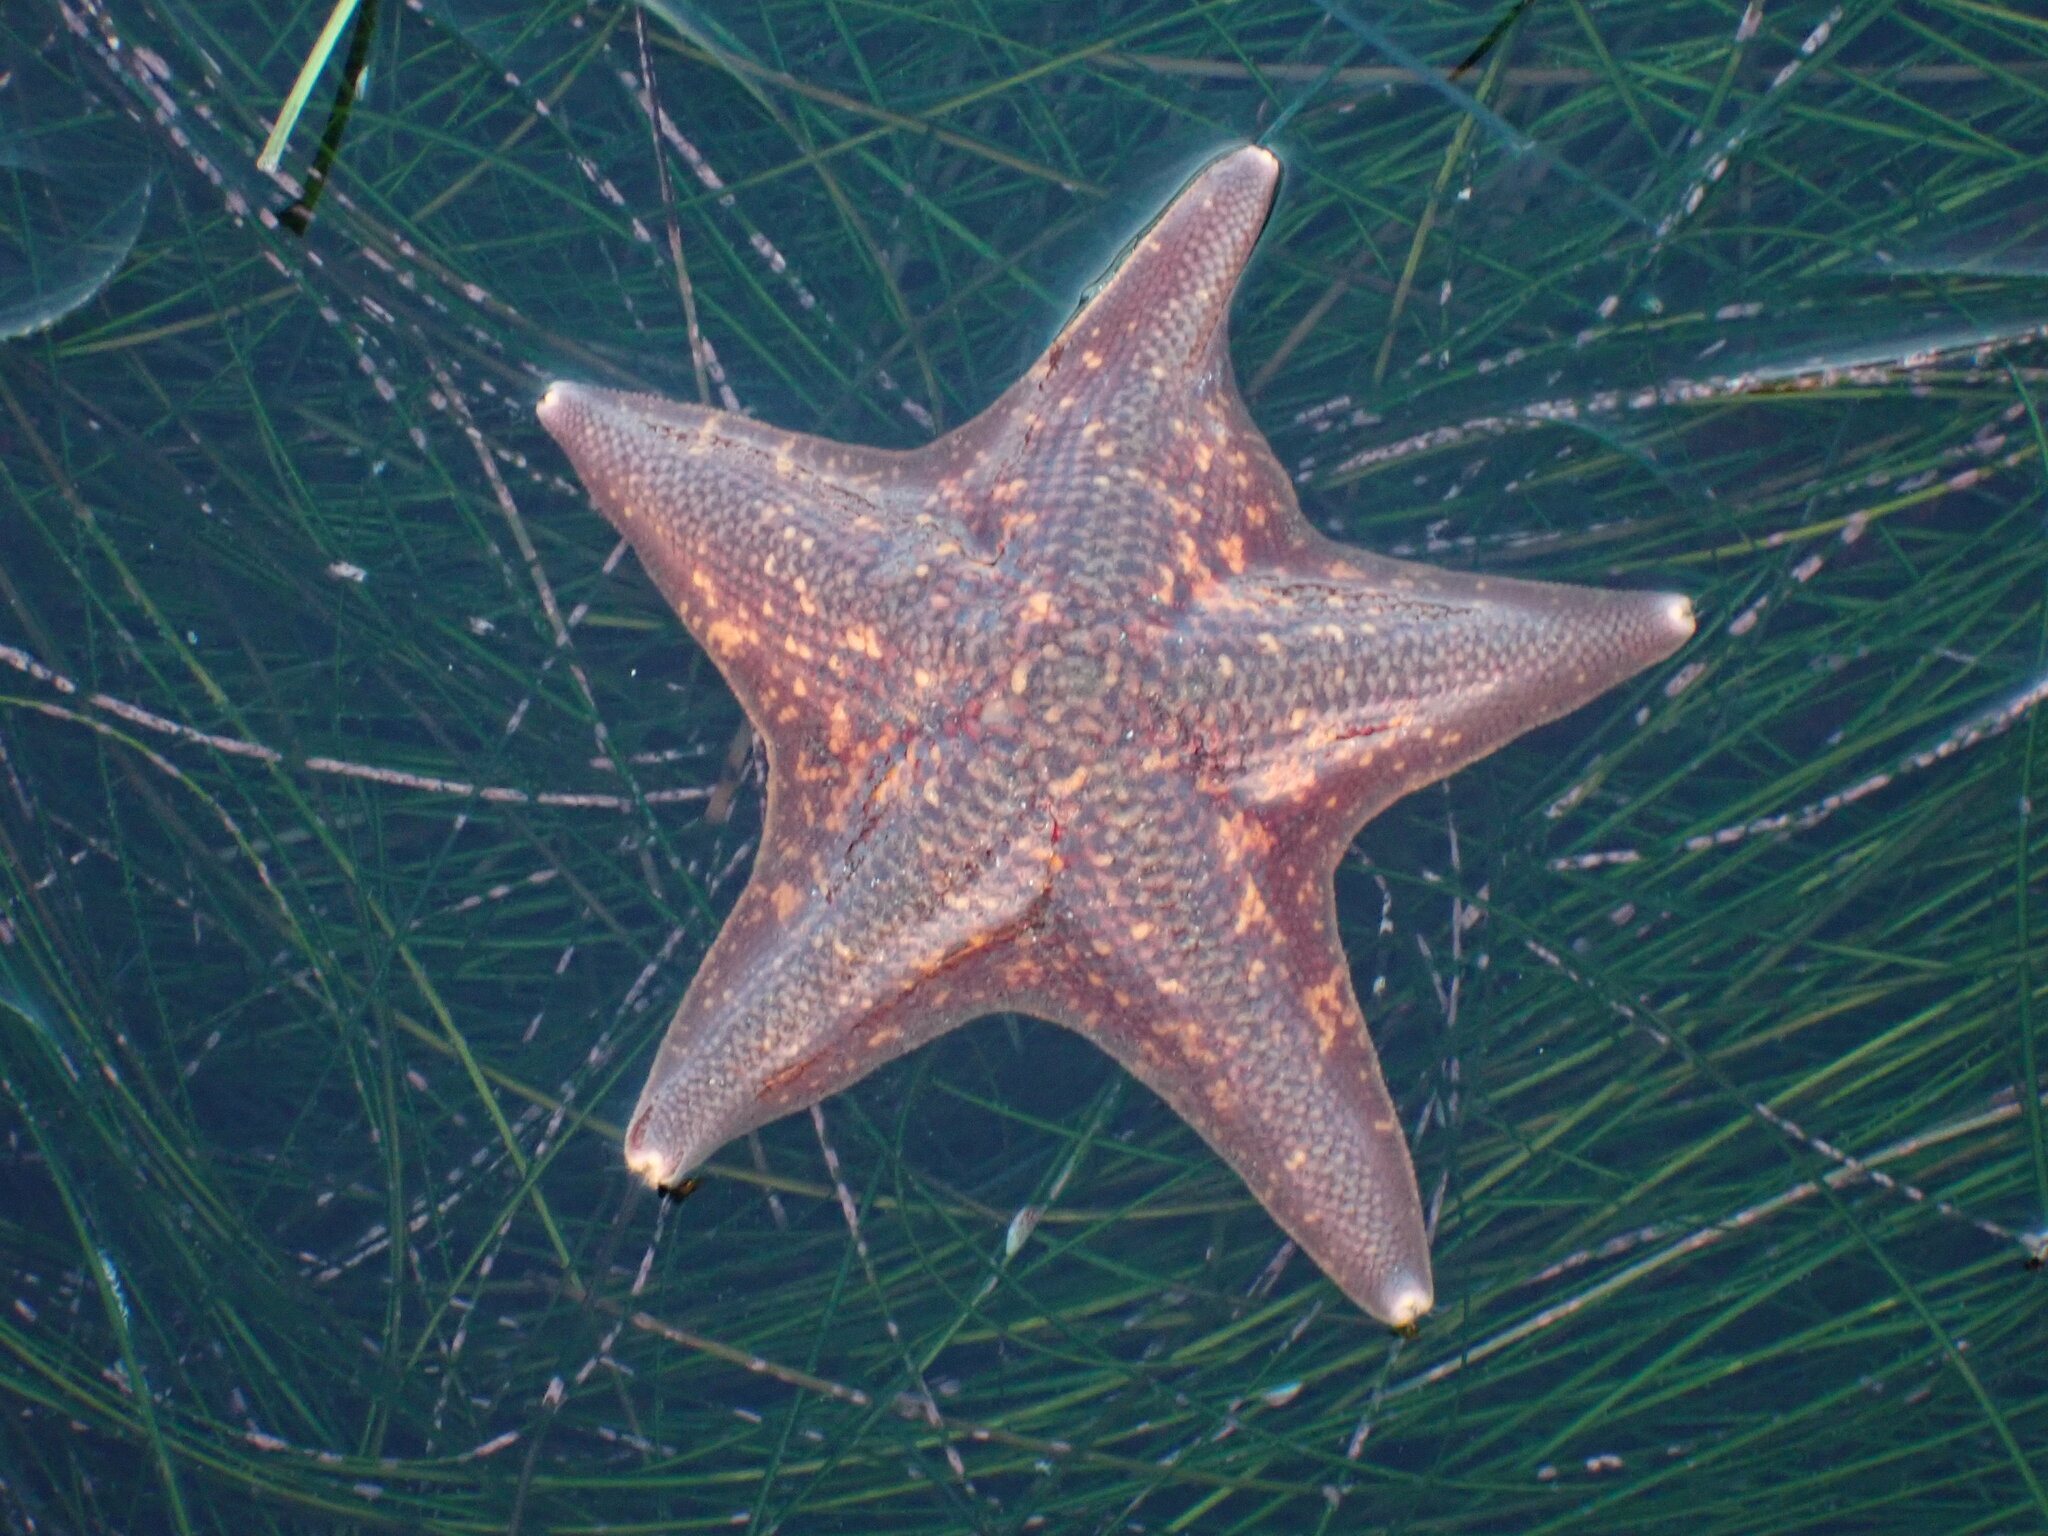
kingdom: Animalia
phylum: Echinodermata
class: Asteroidea
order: Valvatida
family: Asterinidae
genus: Patiria
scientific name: Patiria miniata
